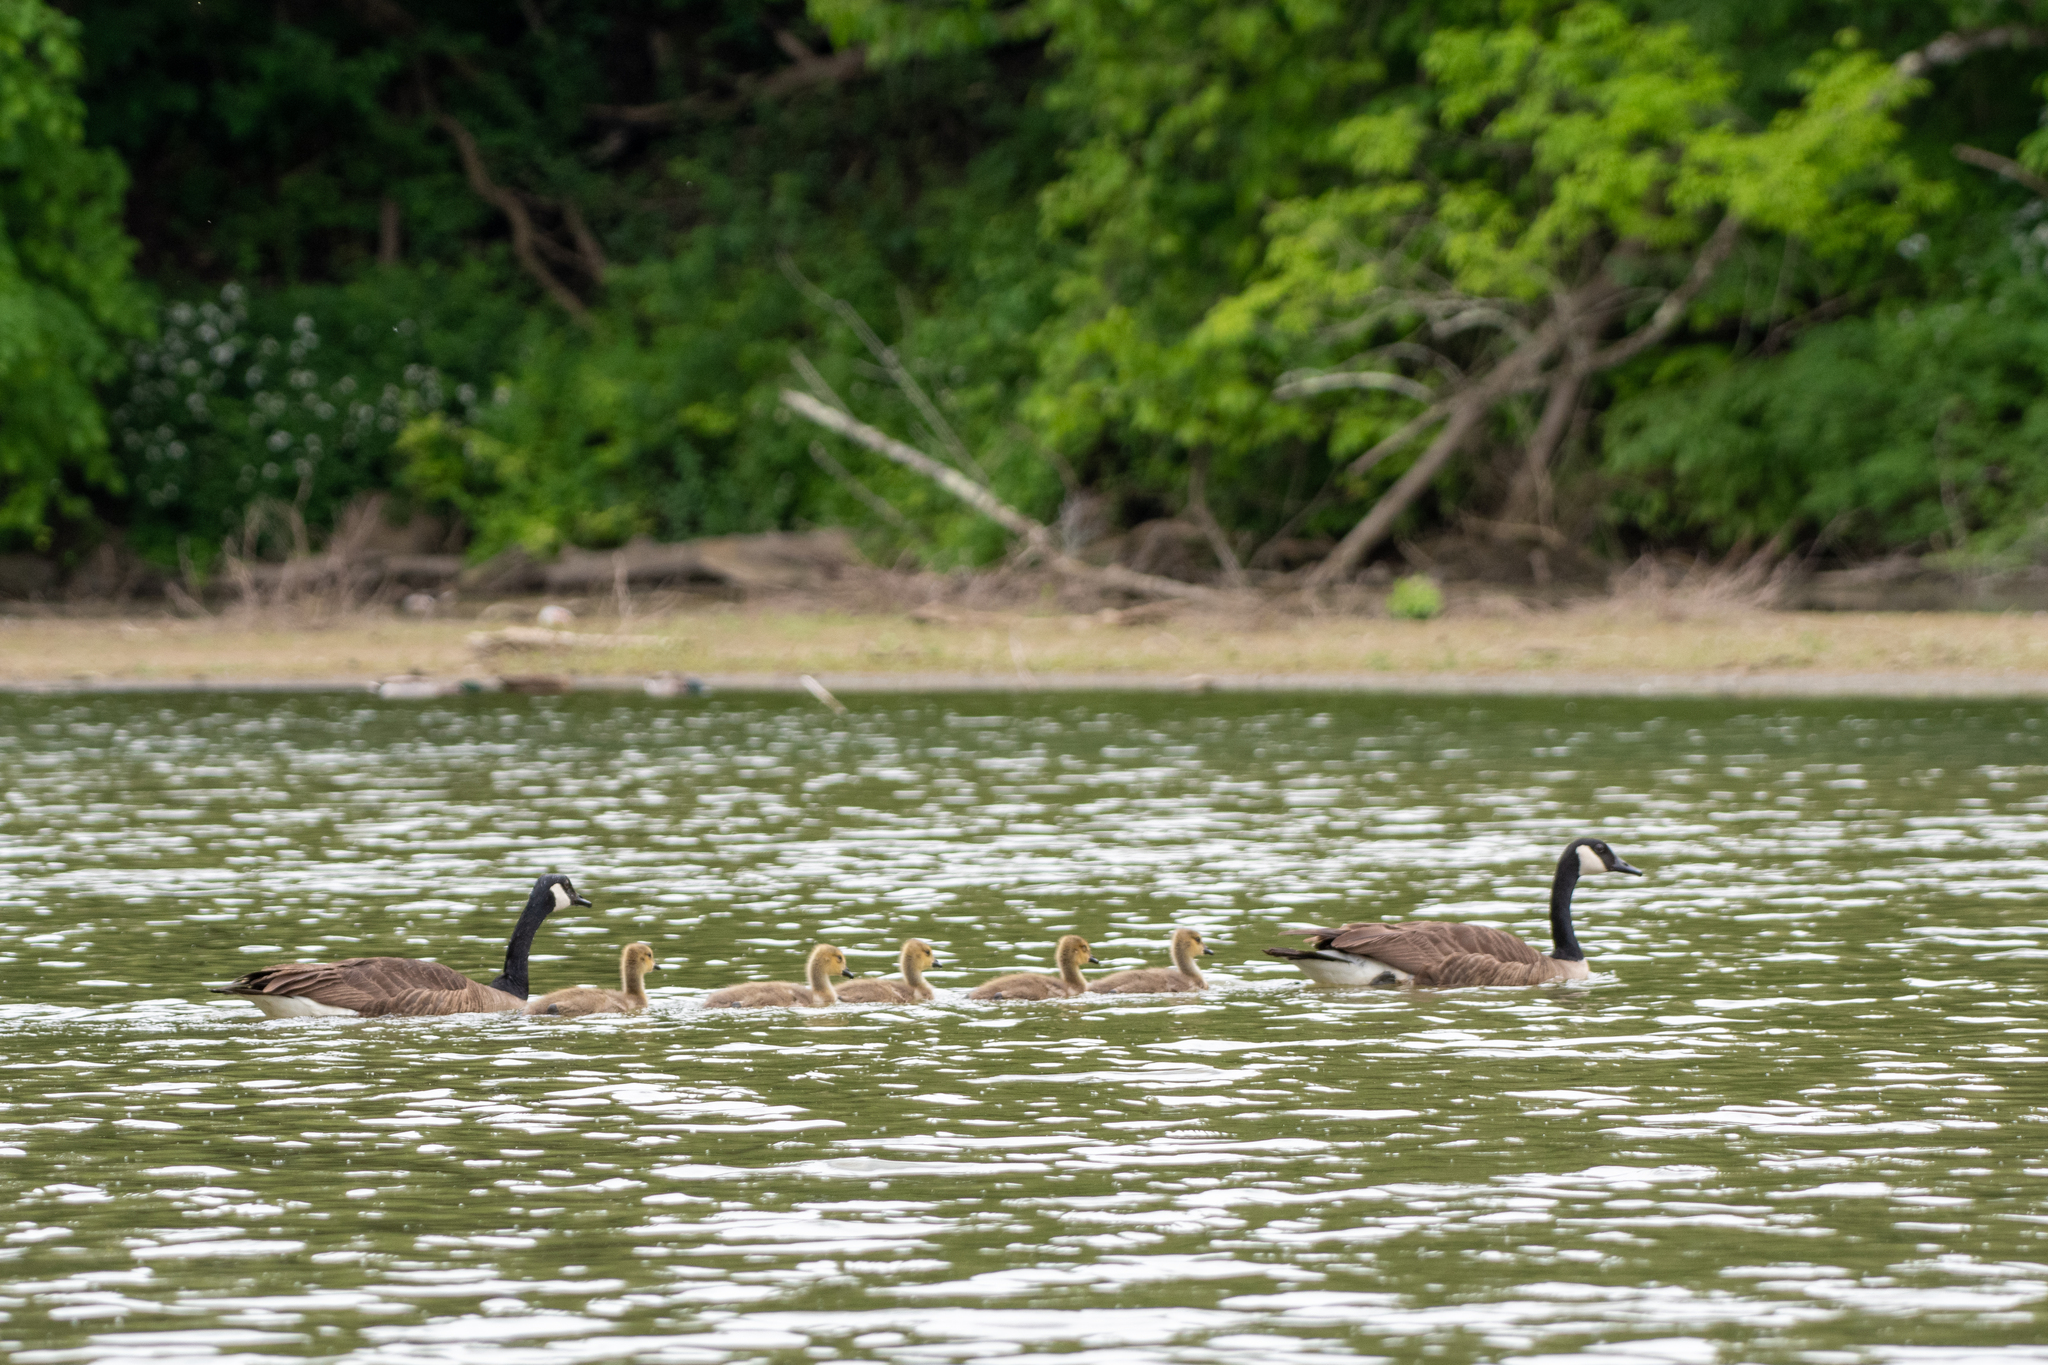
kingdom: Animalia
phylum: Chordata
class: Aves
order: Anseriformes
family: Anatidae
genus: Branta
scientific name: Branta canadensis
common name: Canada goose
